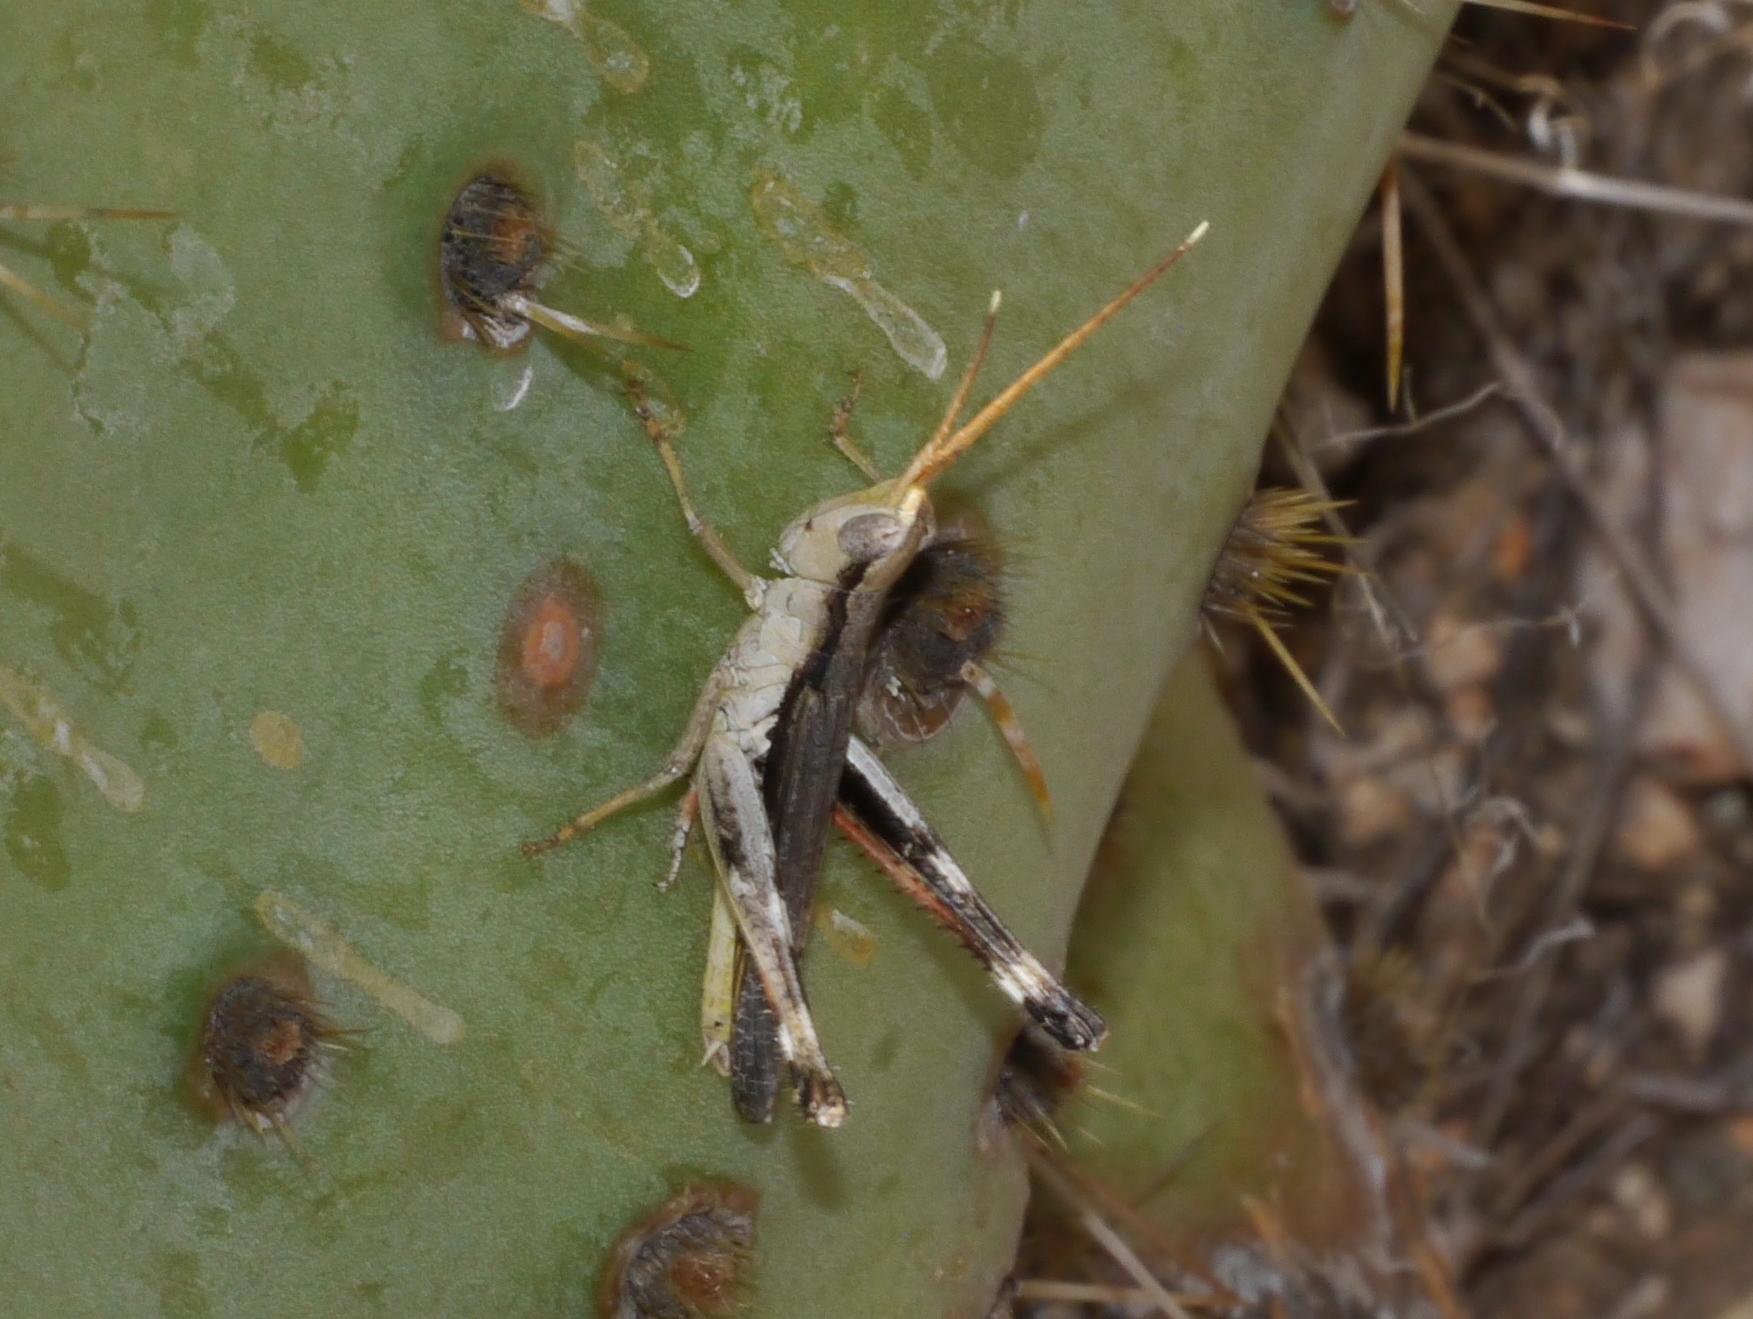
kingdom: Animalia
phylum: Arthropoda
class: Insecta
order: Orthoptera
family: Acrididae
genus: Acantherus
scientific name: Acantherus piperatus
